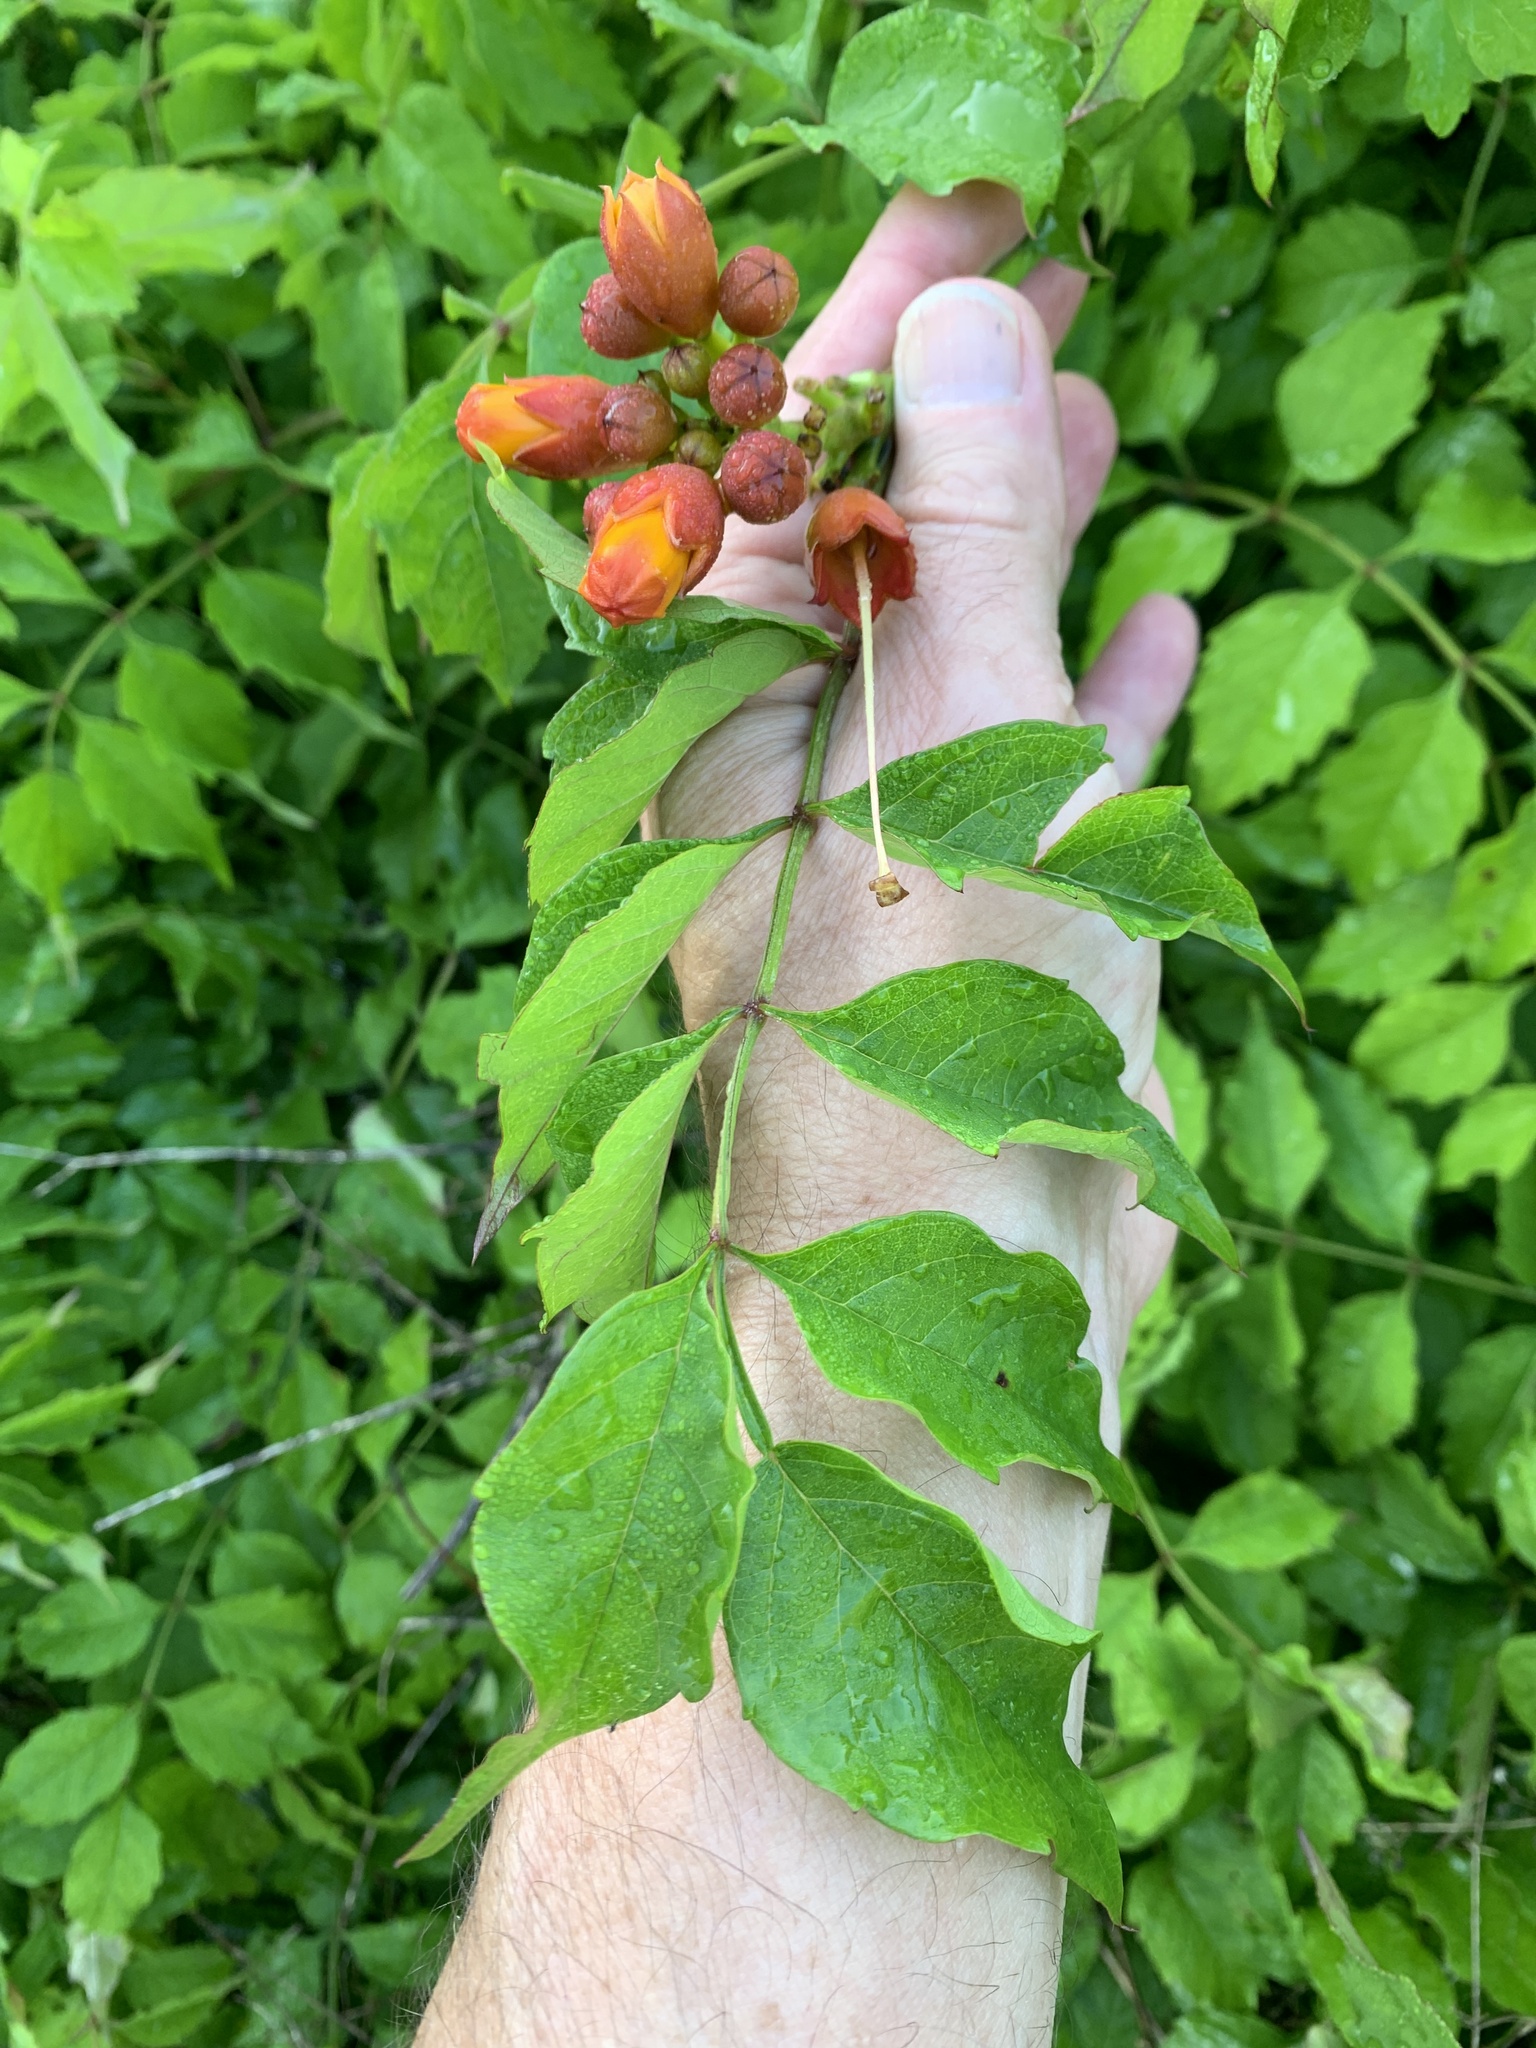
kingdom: Plantae
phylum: Tracheophyta
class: Magnoliopsida
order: Lamiales
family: Bignoniaceae
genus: Campsis
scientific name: Campsis radicans
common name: Trumpet-creeper
